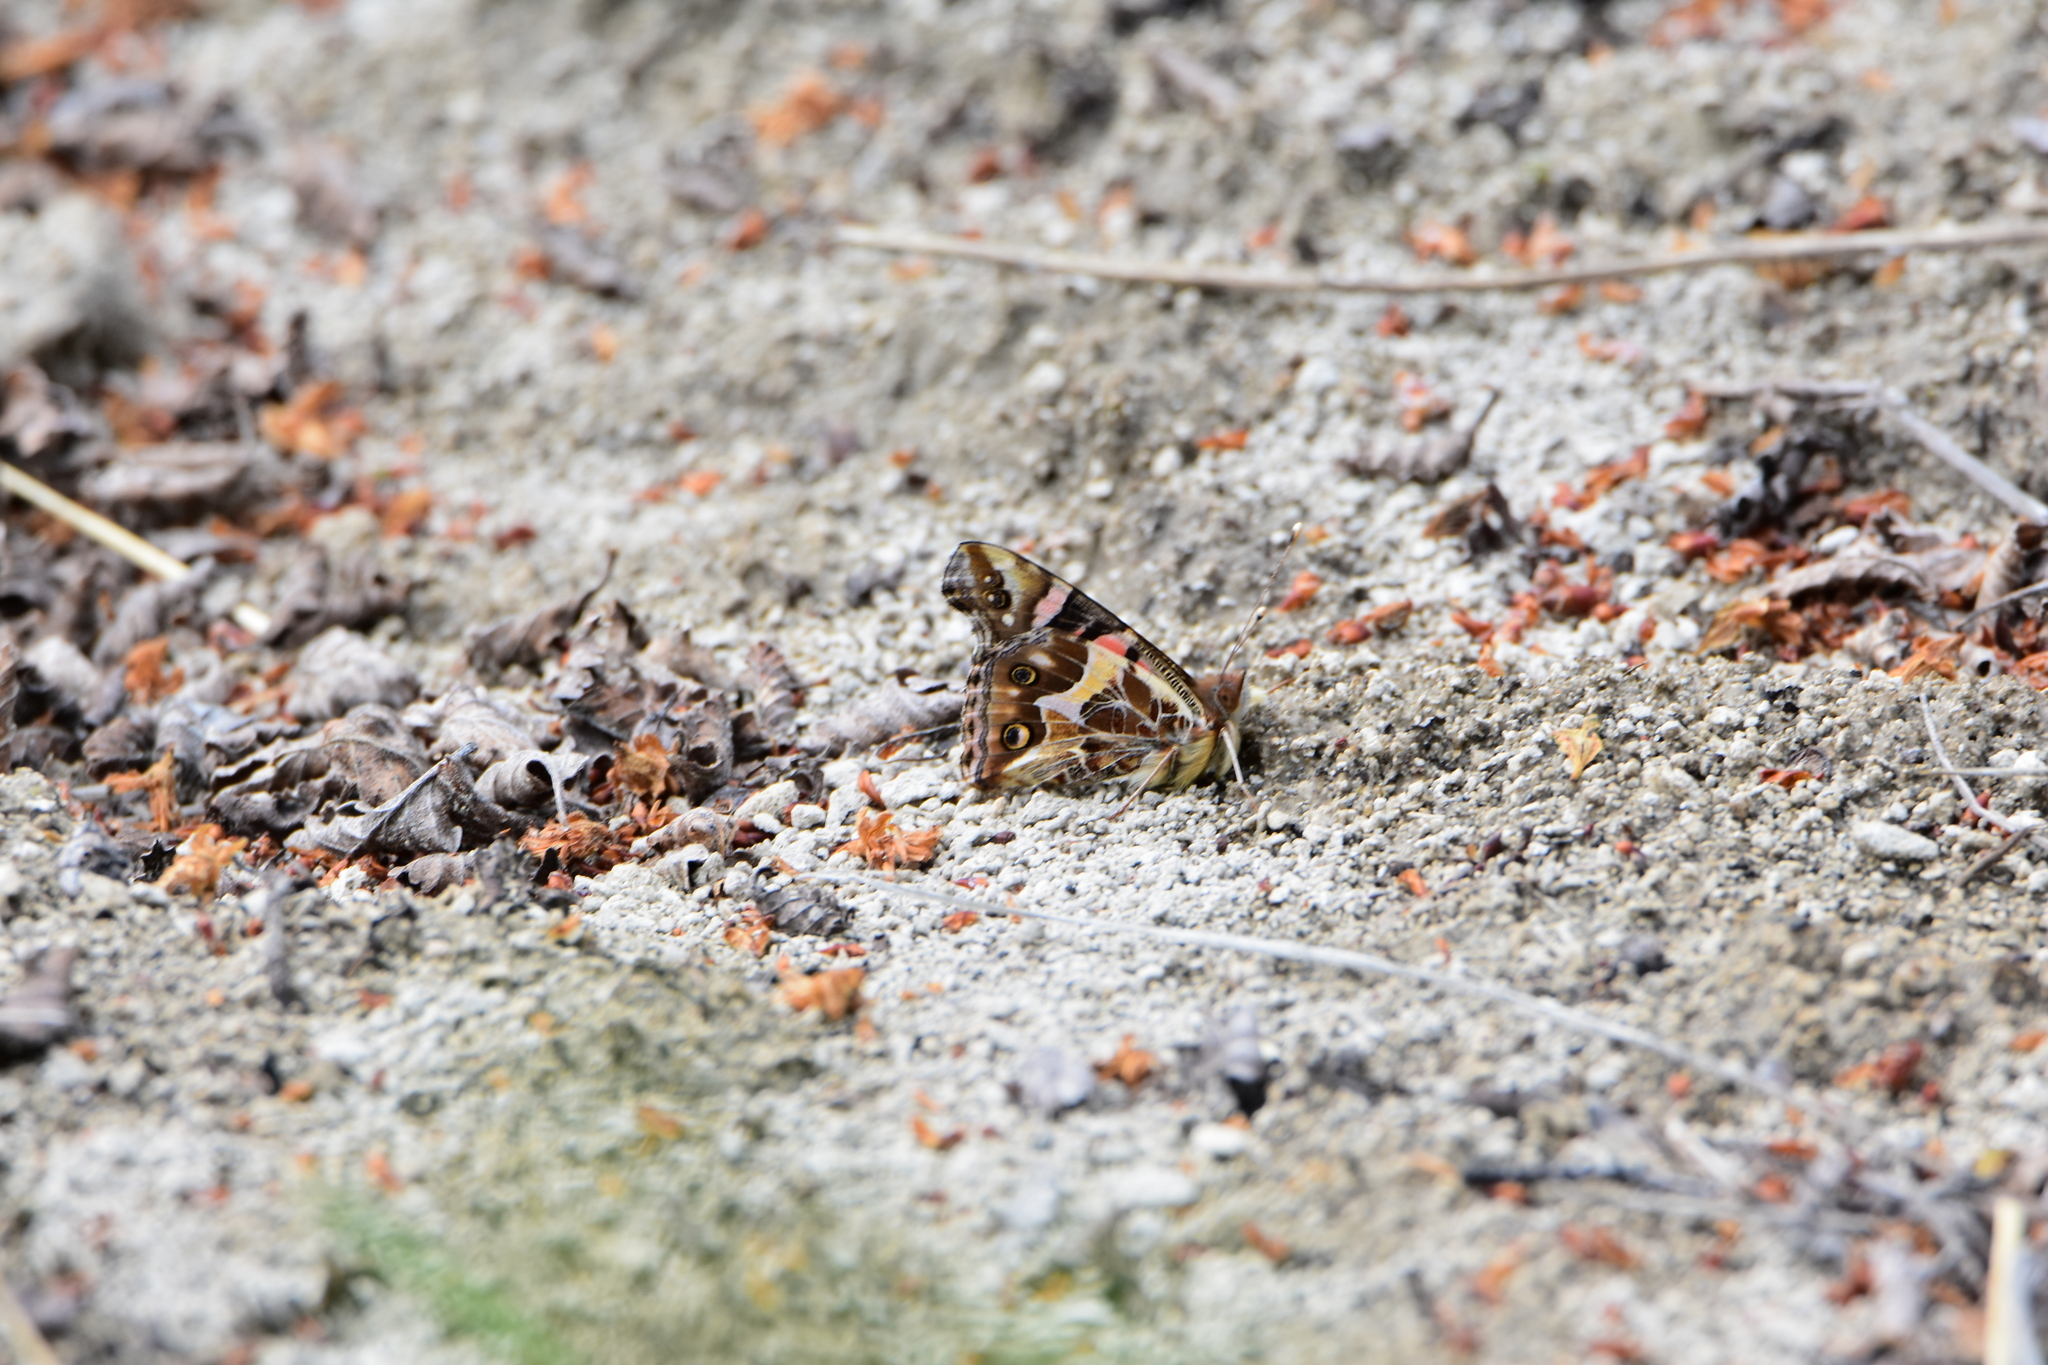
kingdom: Animalia
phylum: Arthropoda
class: Insecta
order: Lepidoptera
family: Nymphalidae
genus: Vanessa
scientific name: Vanessa terpsichore
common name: Chilean lady
